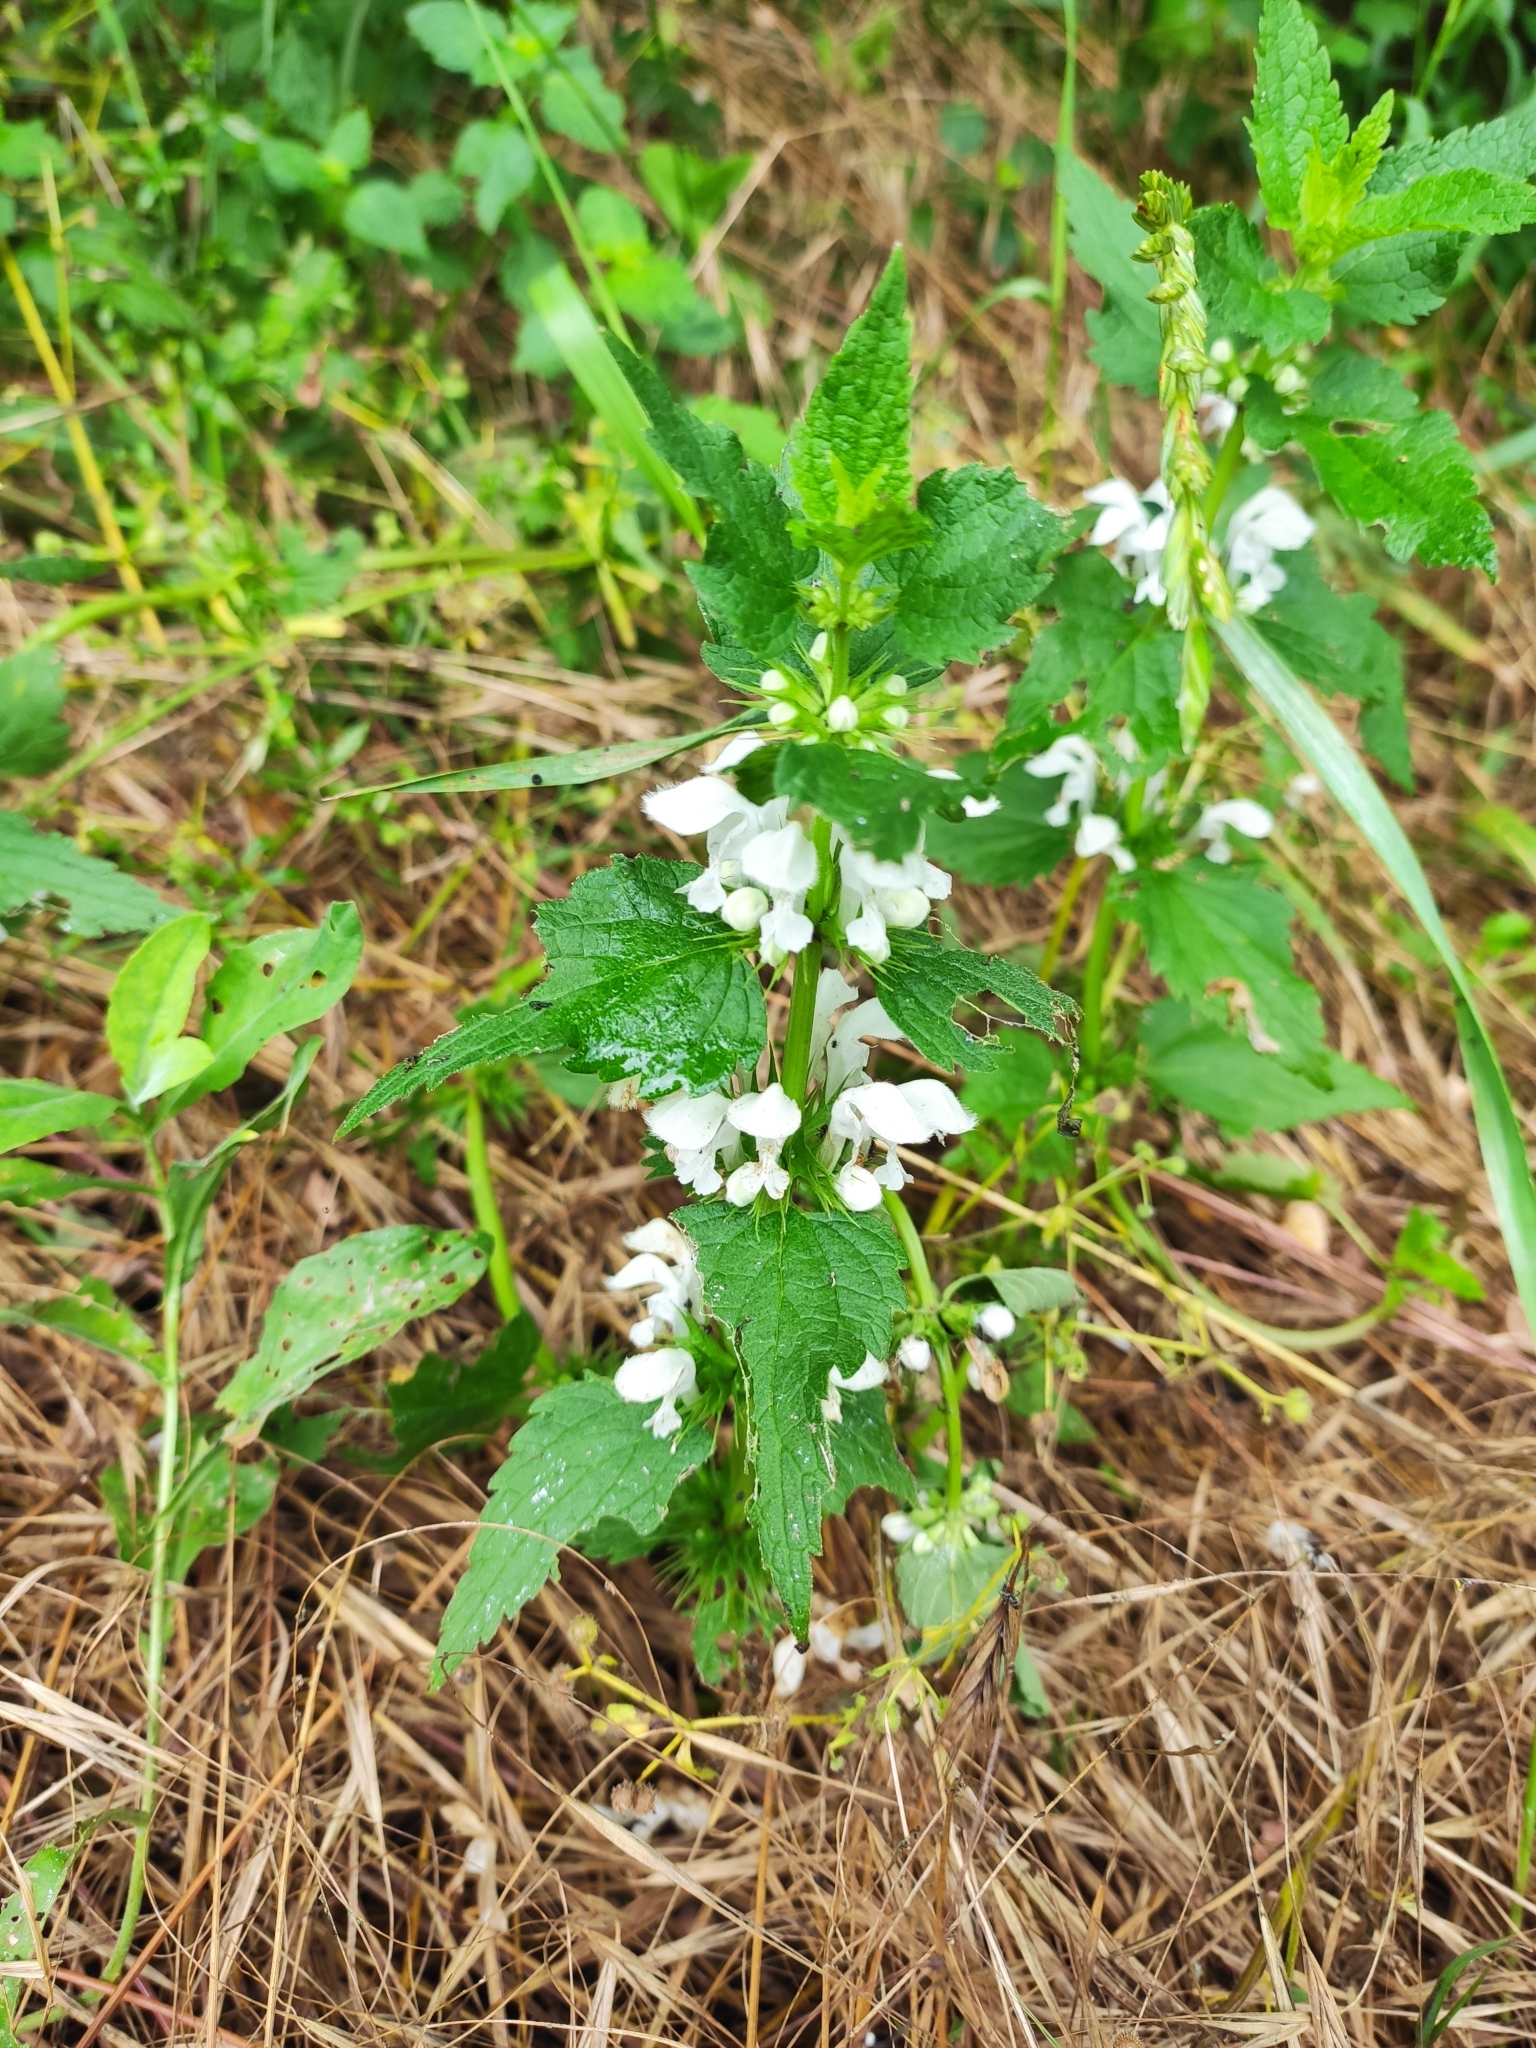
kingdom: Plantae
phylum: Tracheophyta
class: Magnoliopsida
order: Lamiales
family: Lamiaceae
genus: Lamium
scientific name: Lamium album
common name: White dead-nettle
